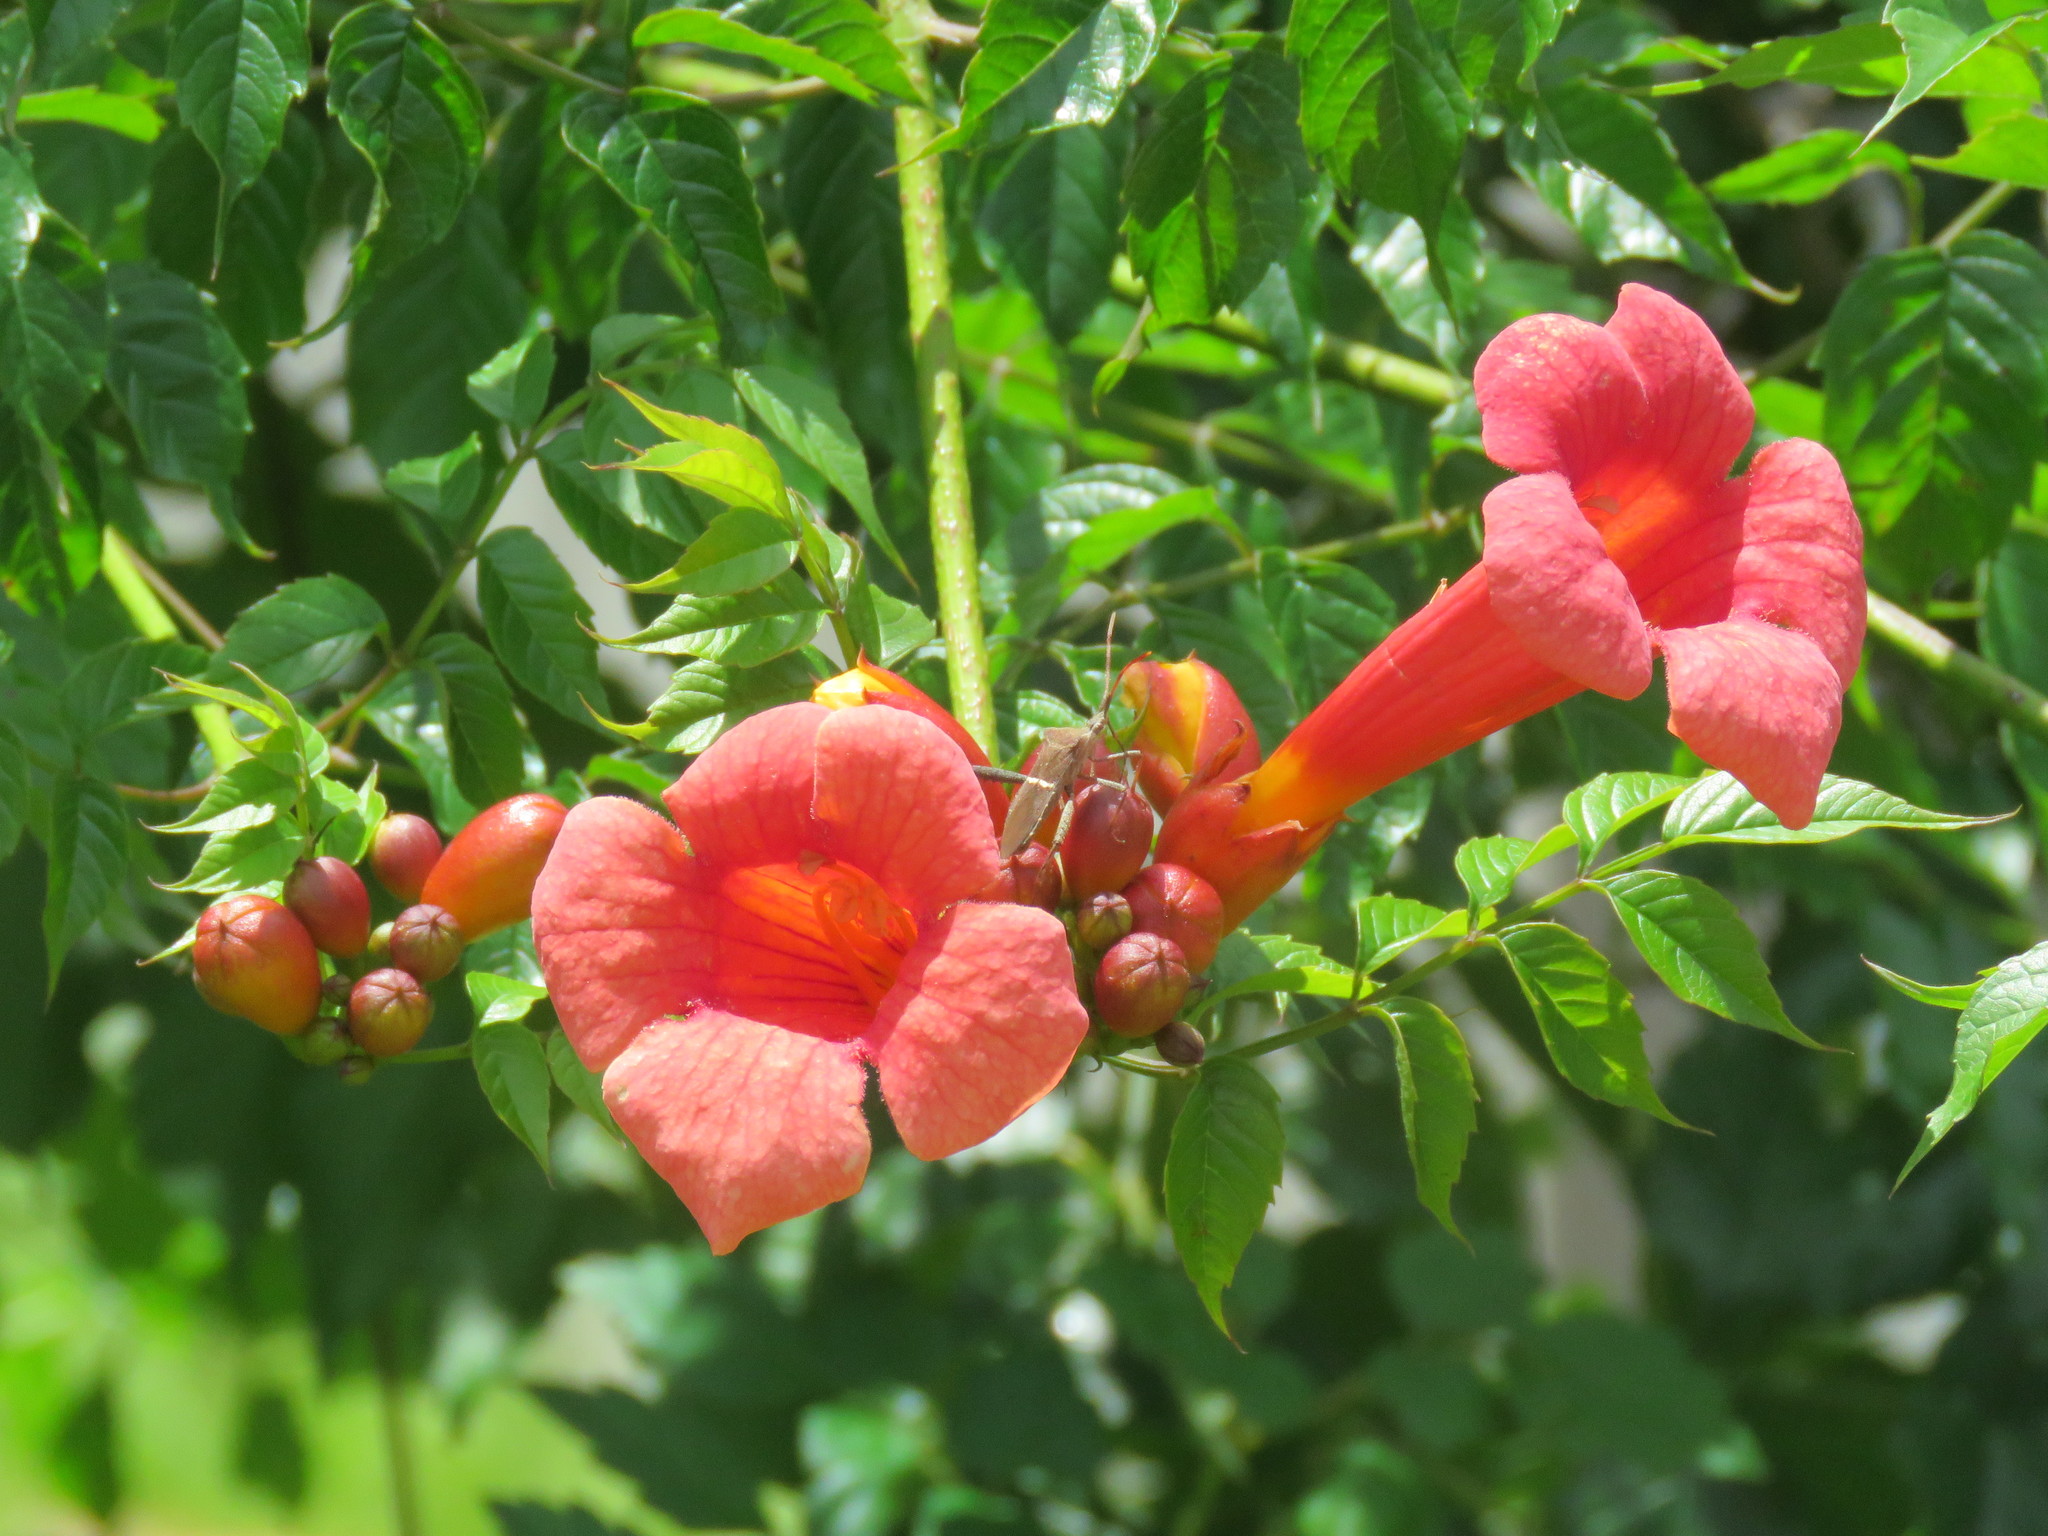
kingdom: Plantae
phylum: Tracheophyta
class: Magnoliopsida
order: Lamiales
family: Bignoniaceae
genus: Campsis
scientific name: Campsis radicans
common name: Trumpet-creeper
